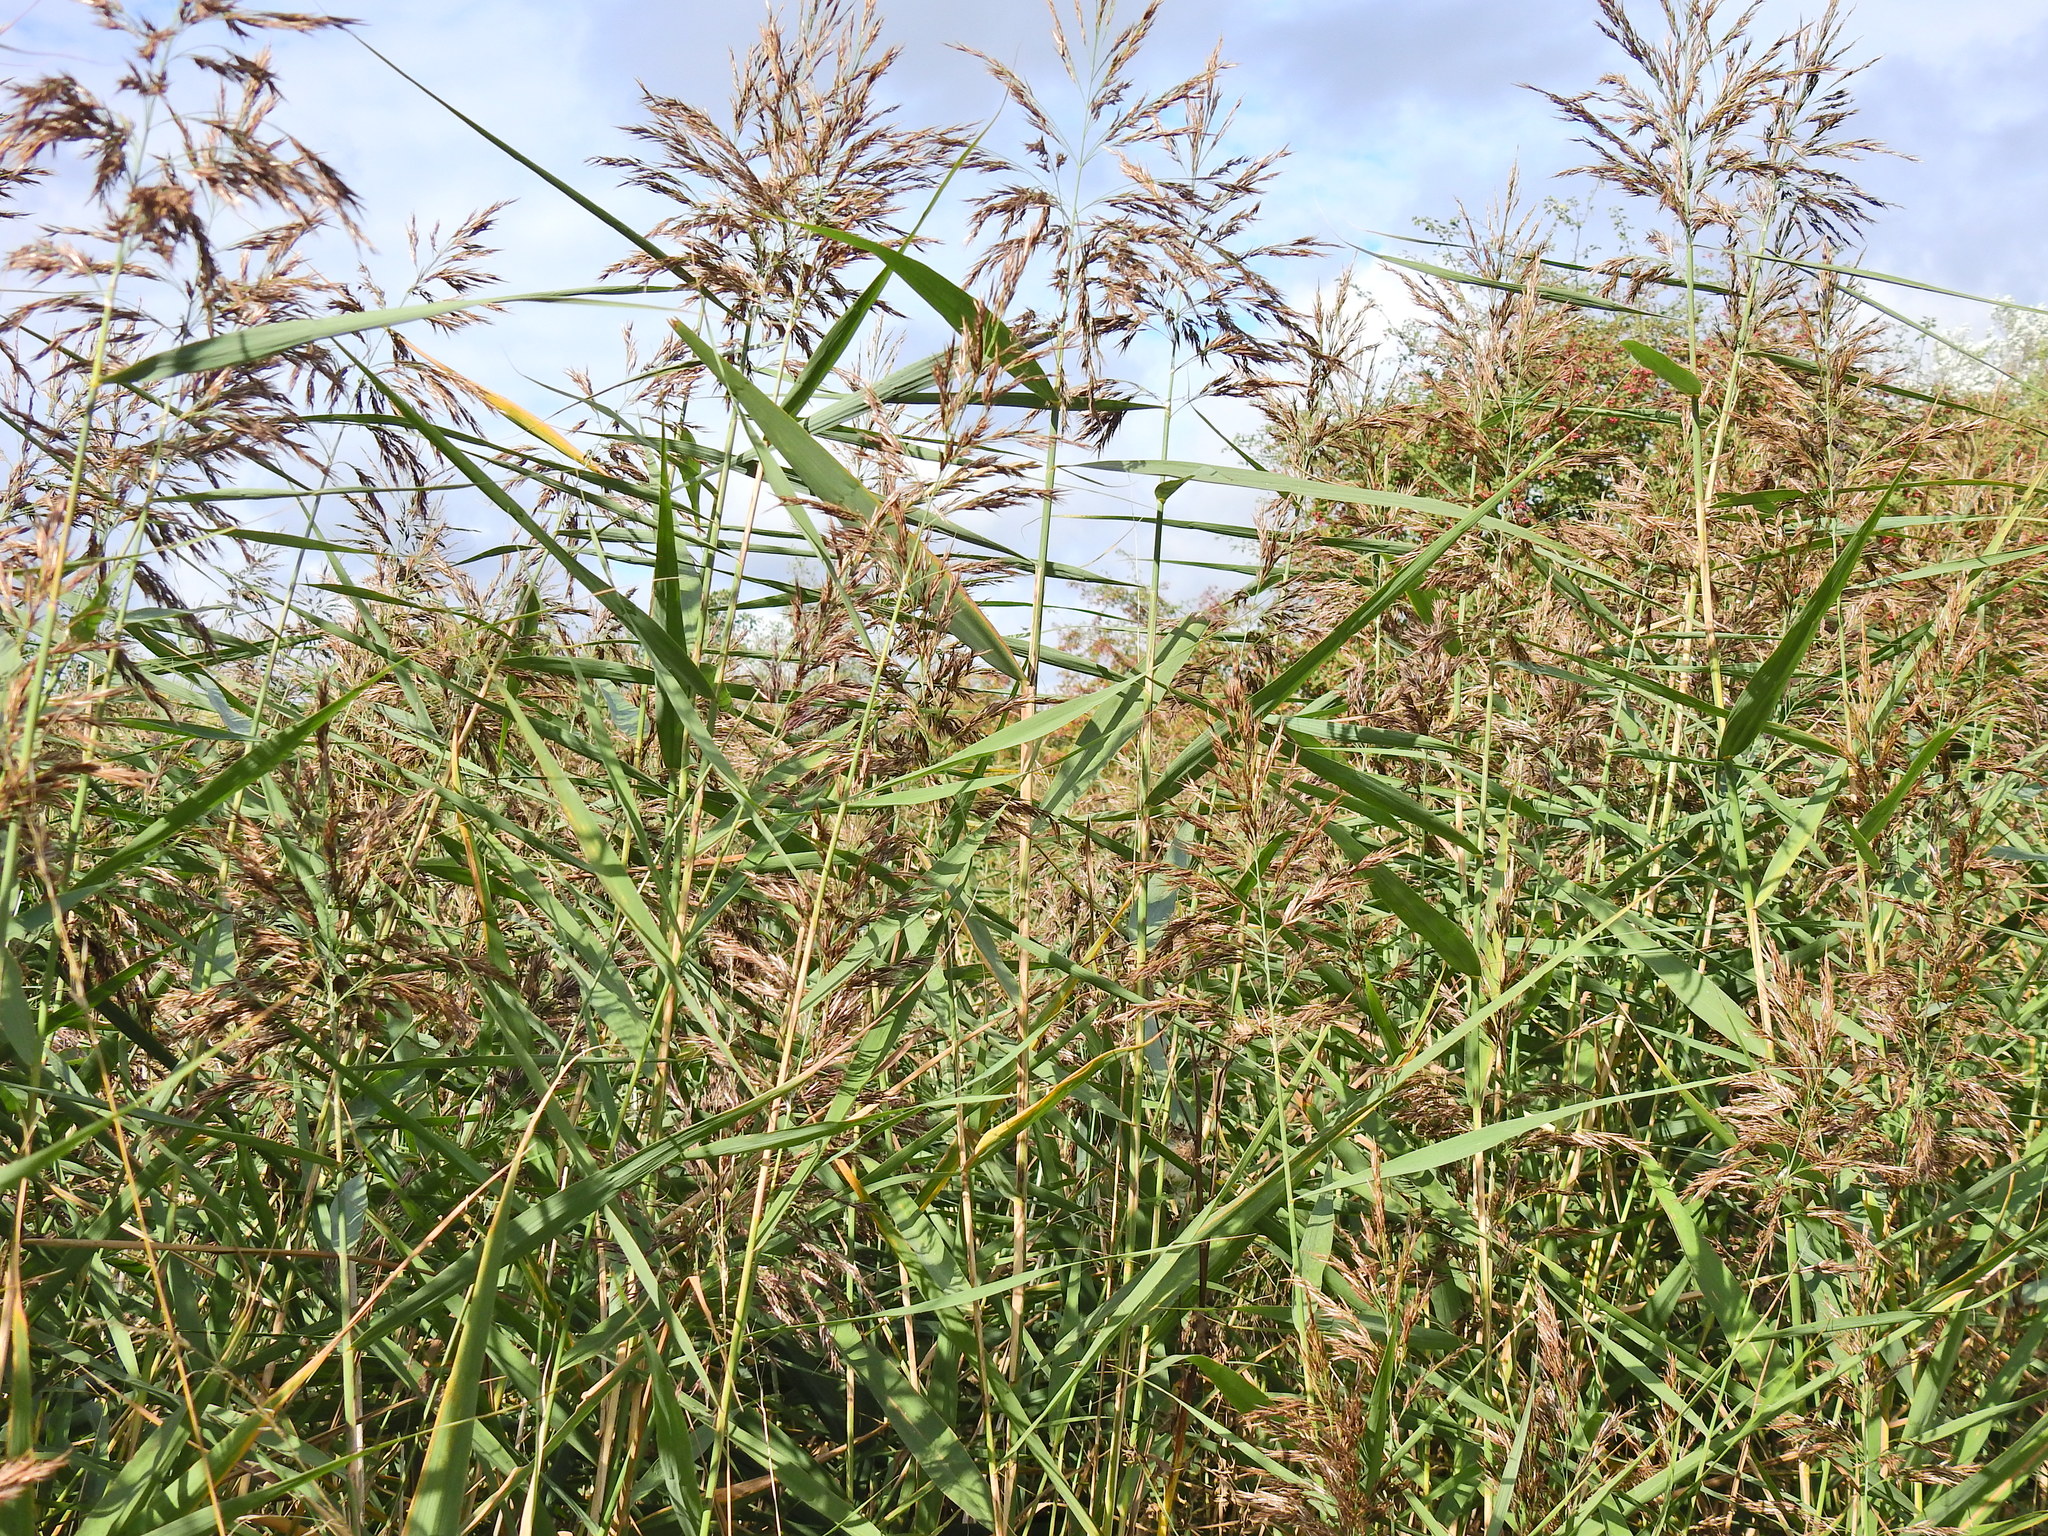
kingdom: Plantae
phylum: Tracheophyta
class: Liliopsida
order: Poales
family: Poaceae
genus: Phragmites
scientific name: Phragmites australis
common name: Common reed
